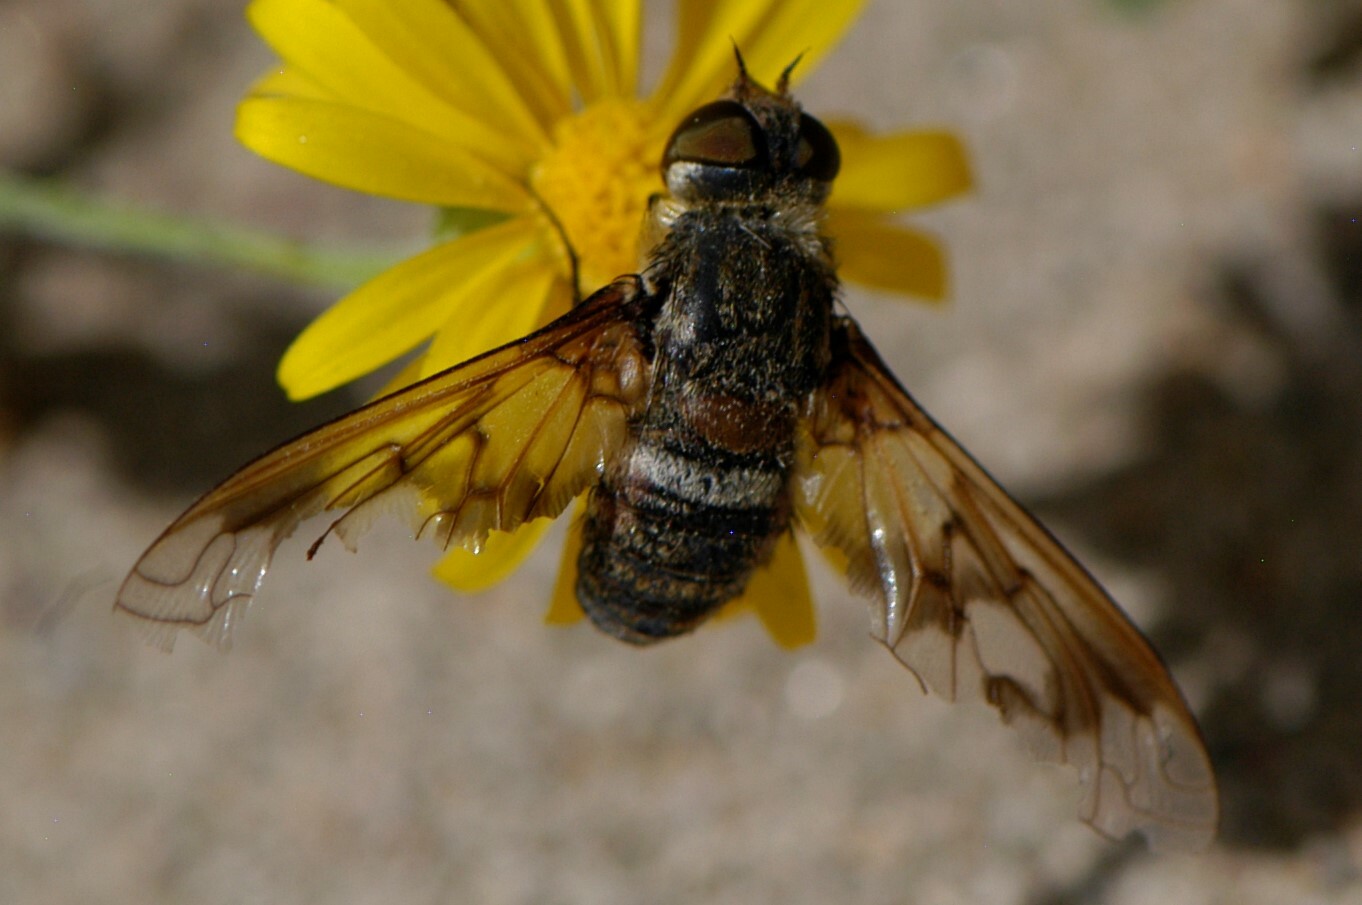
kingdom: Animalia
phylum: Arthropoda
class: Insecta
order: Diptera
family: Bombyliidae
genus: Exoprosopa
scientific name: Exoprosopa
